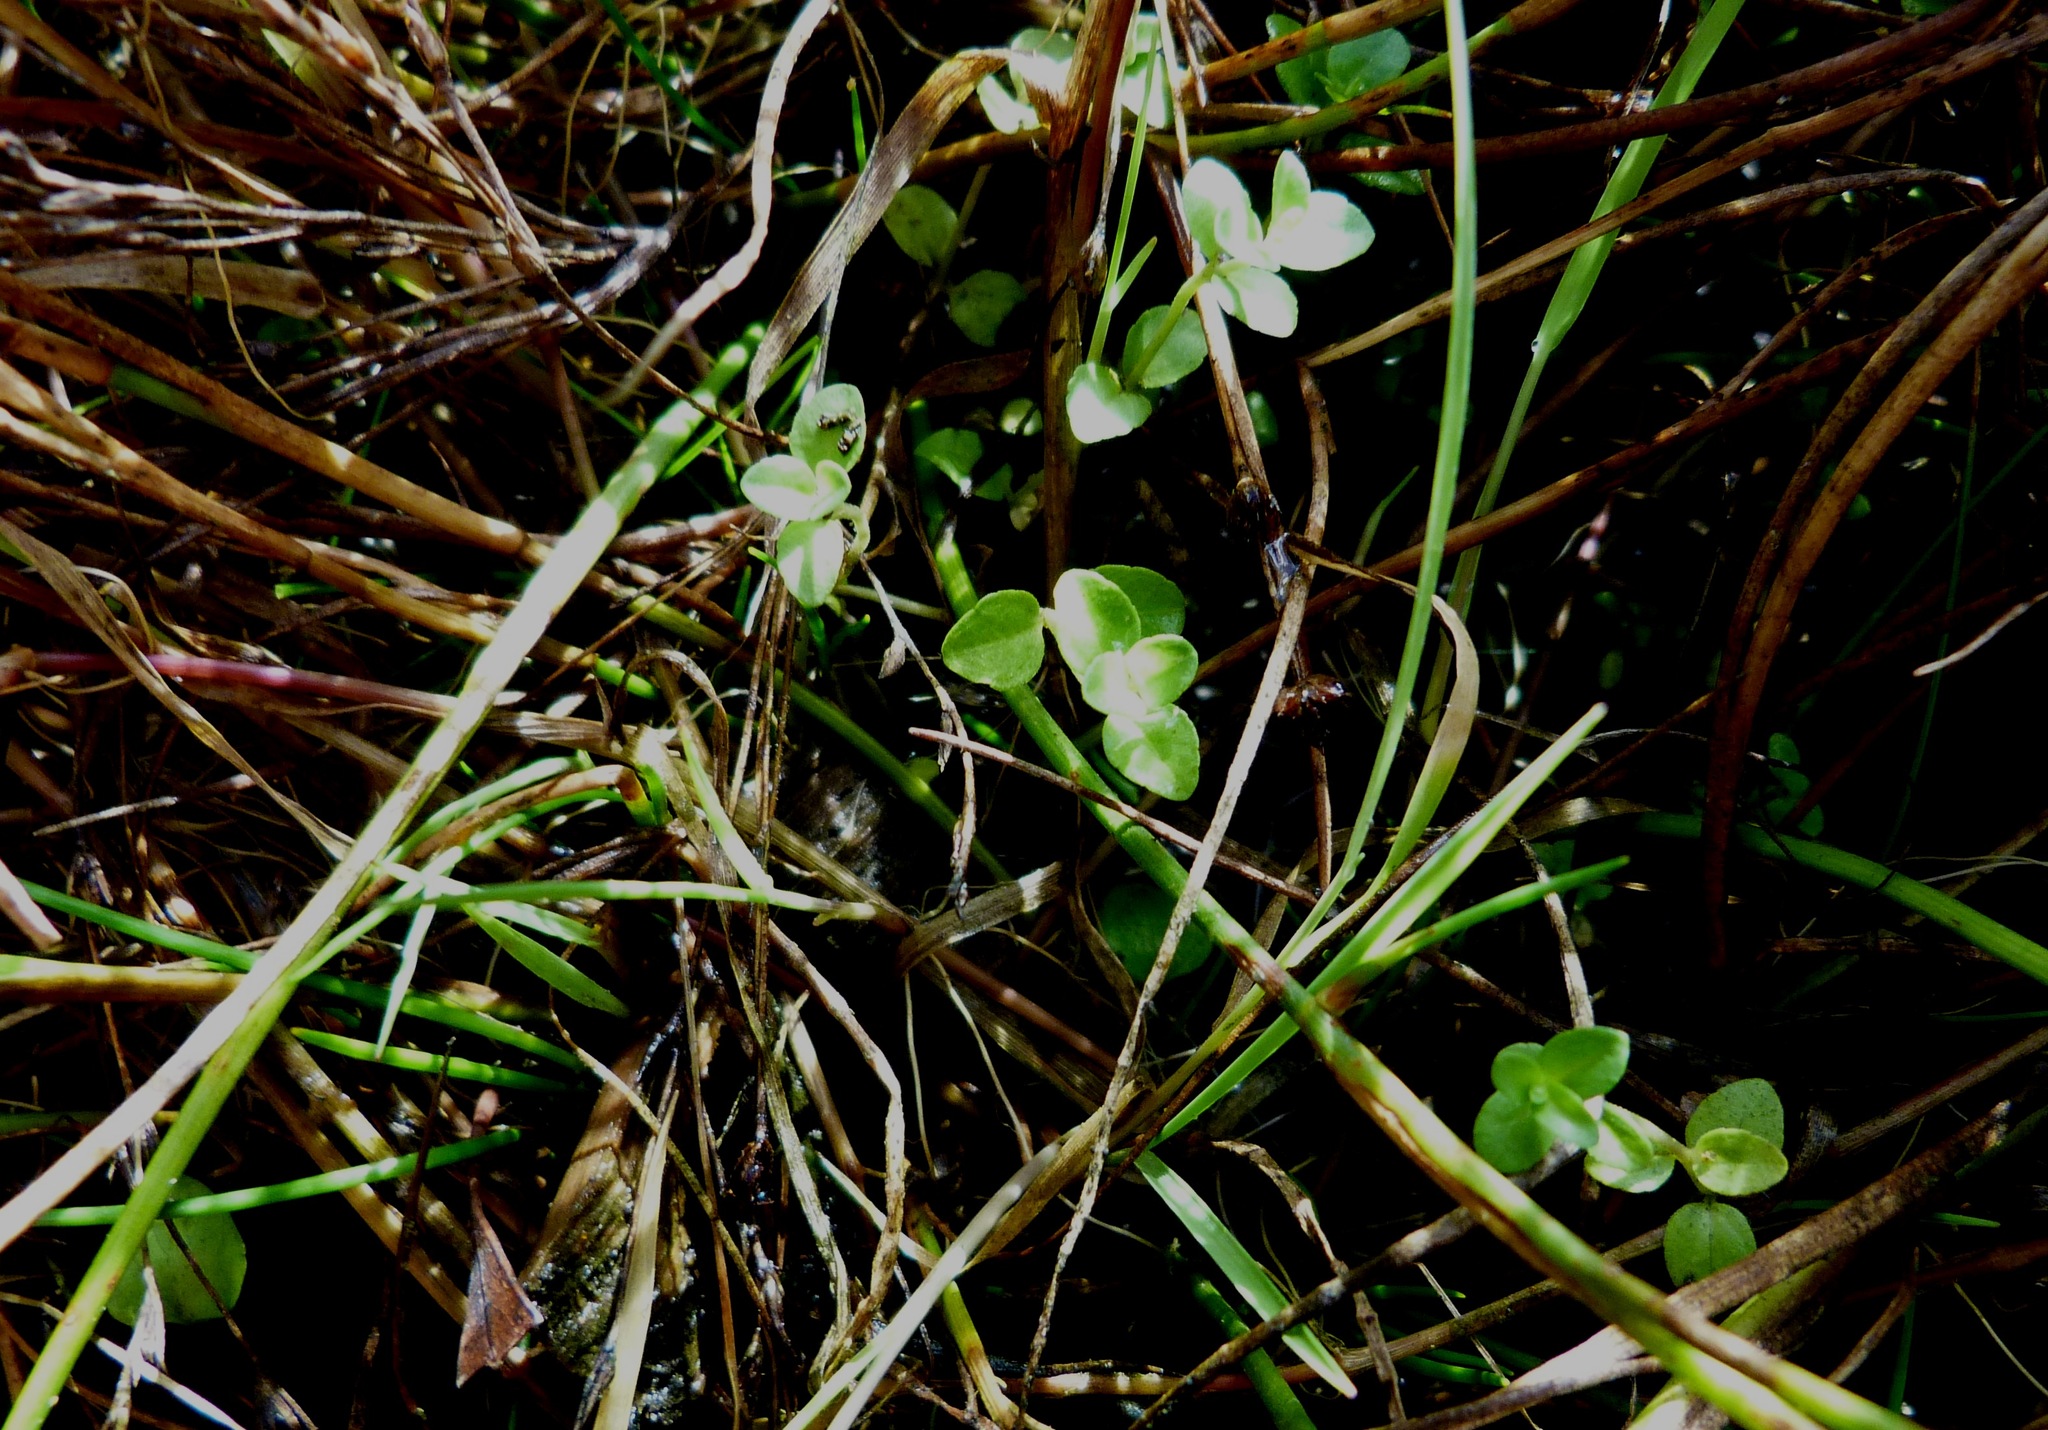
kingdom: Plantae
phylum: Tracheophyta
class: Magnoliopsida
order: Lamiales
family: Plantaginaceae
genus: Veronica
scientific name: Veronica serpyllifolia
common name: Thyme-leaved speedwell
